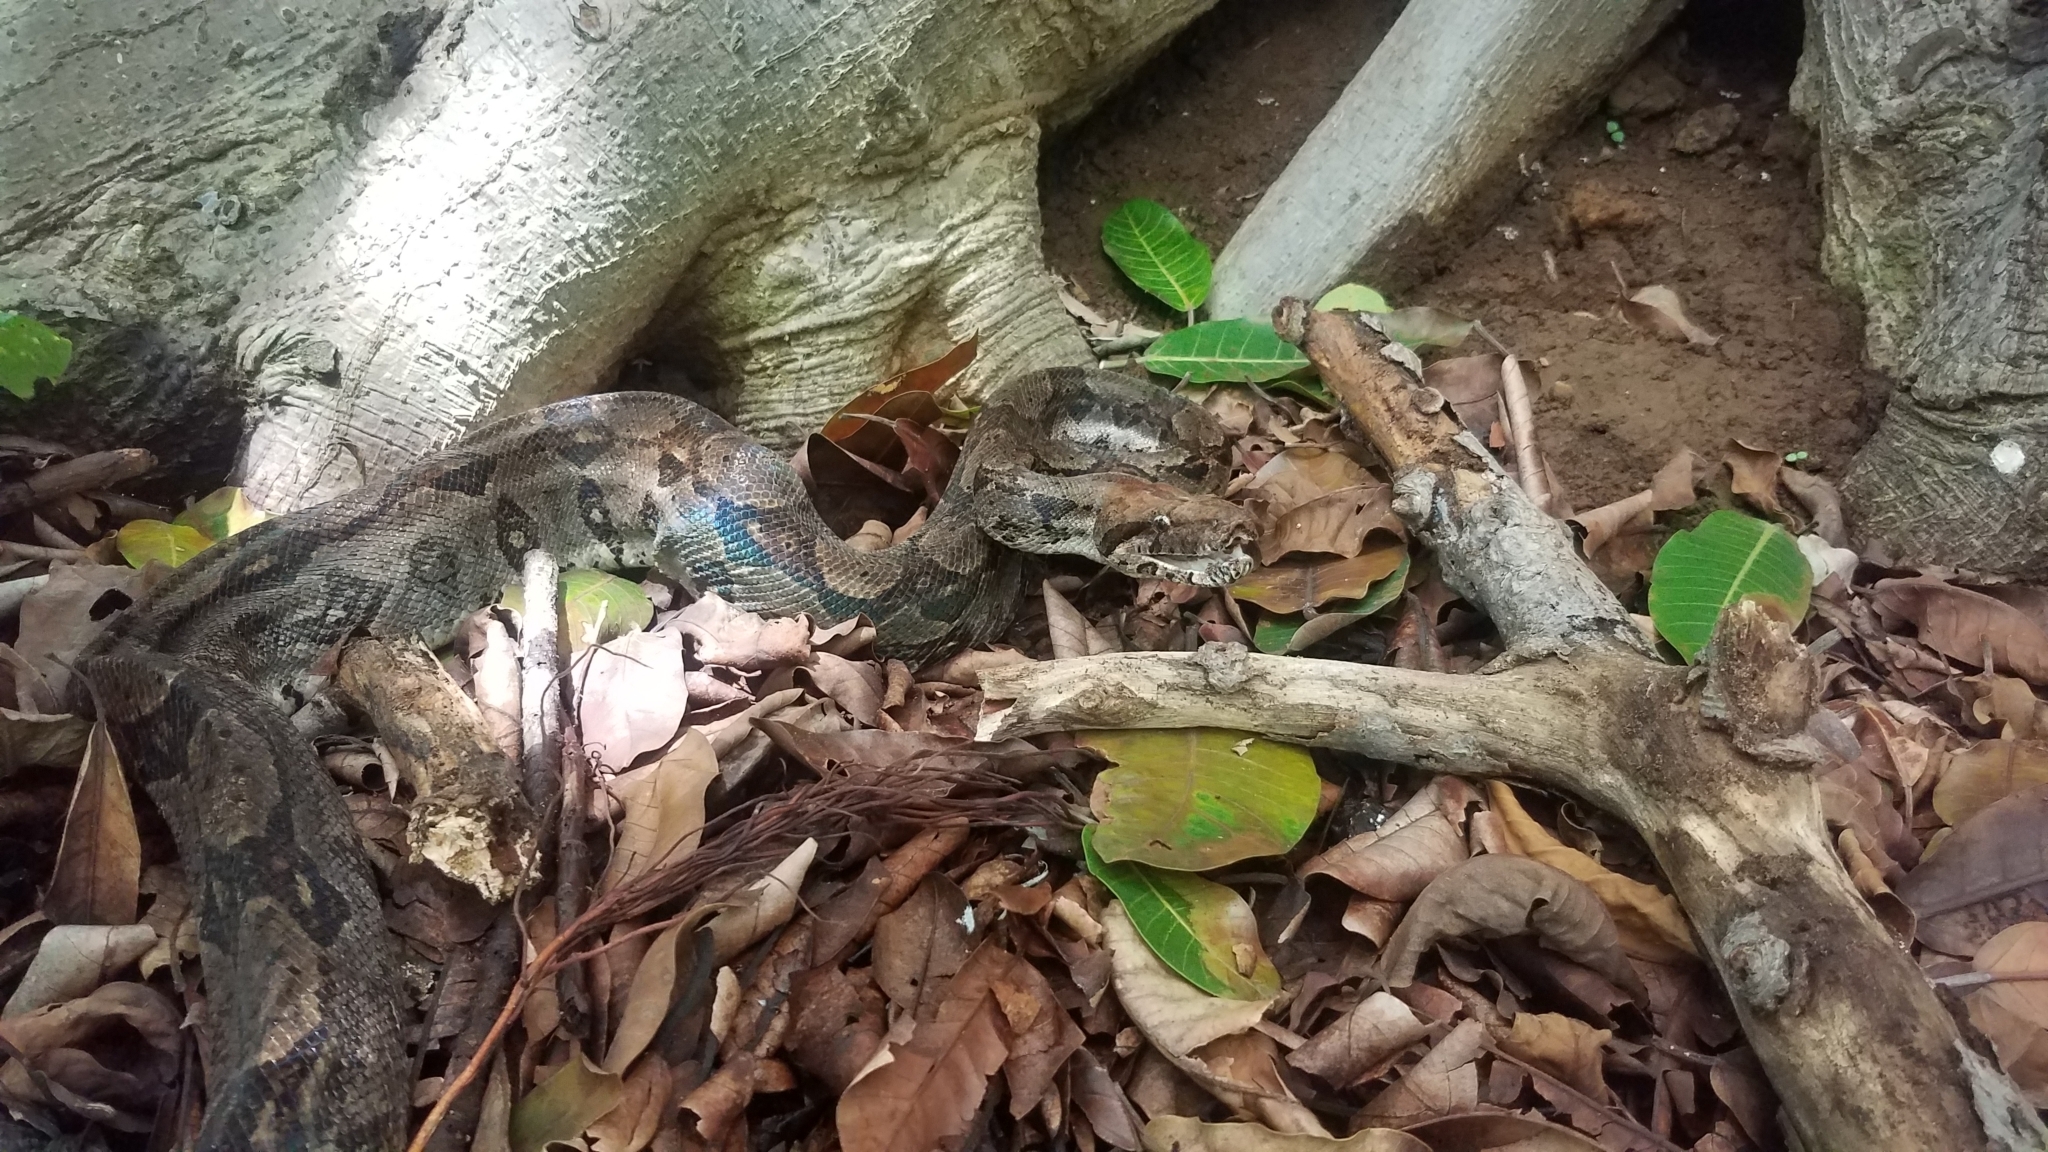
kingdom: Animalia
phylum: Chordata
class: Squamata
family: Boidae
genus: Boa
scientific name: Boa imperator
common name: Central american boa
